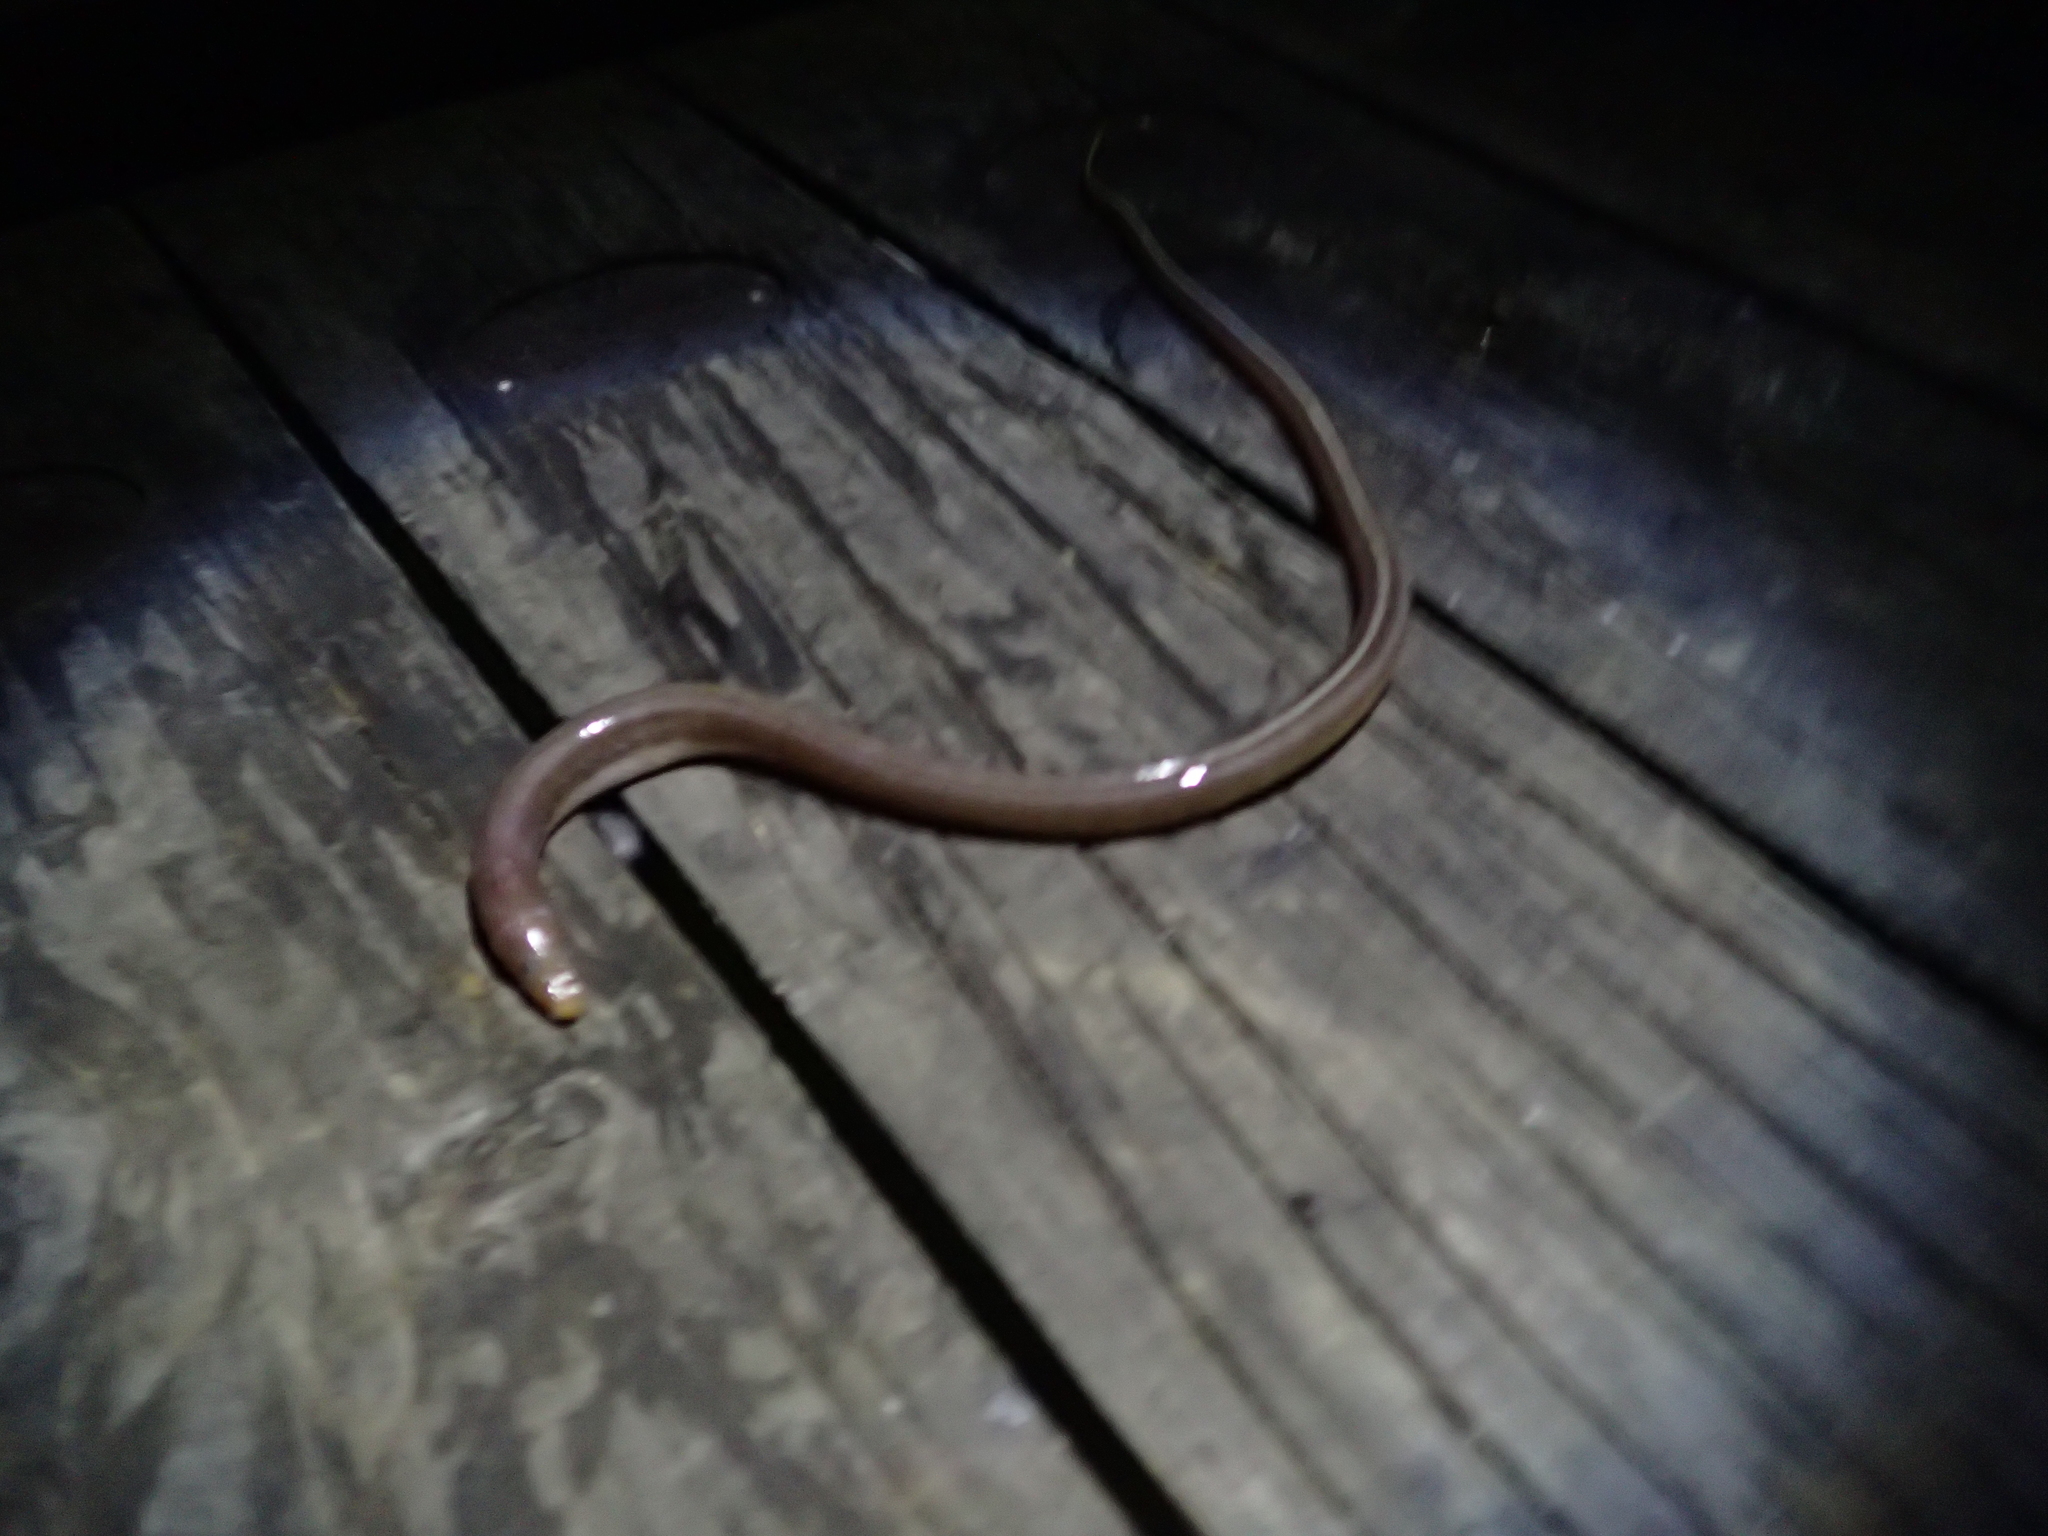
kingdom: Animalia
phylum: Chordata
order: Anguilliformes
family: Ophichthidae
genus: Scolecenchelys
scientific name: Scolecenchelys breviceps
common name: Big-eyed worm eel
